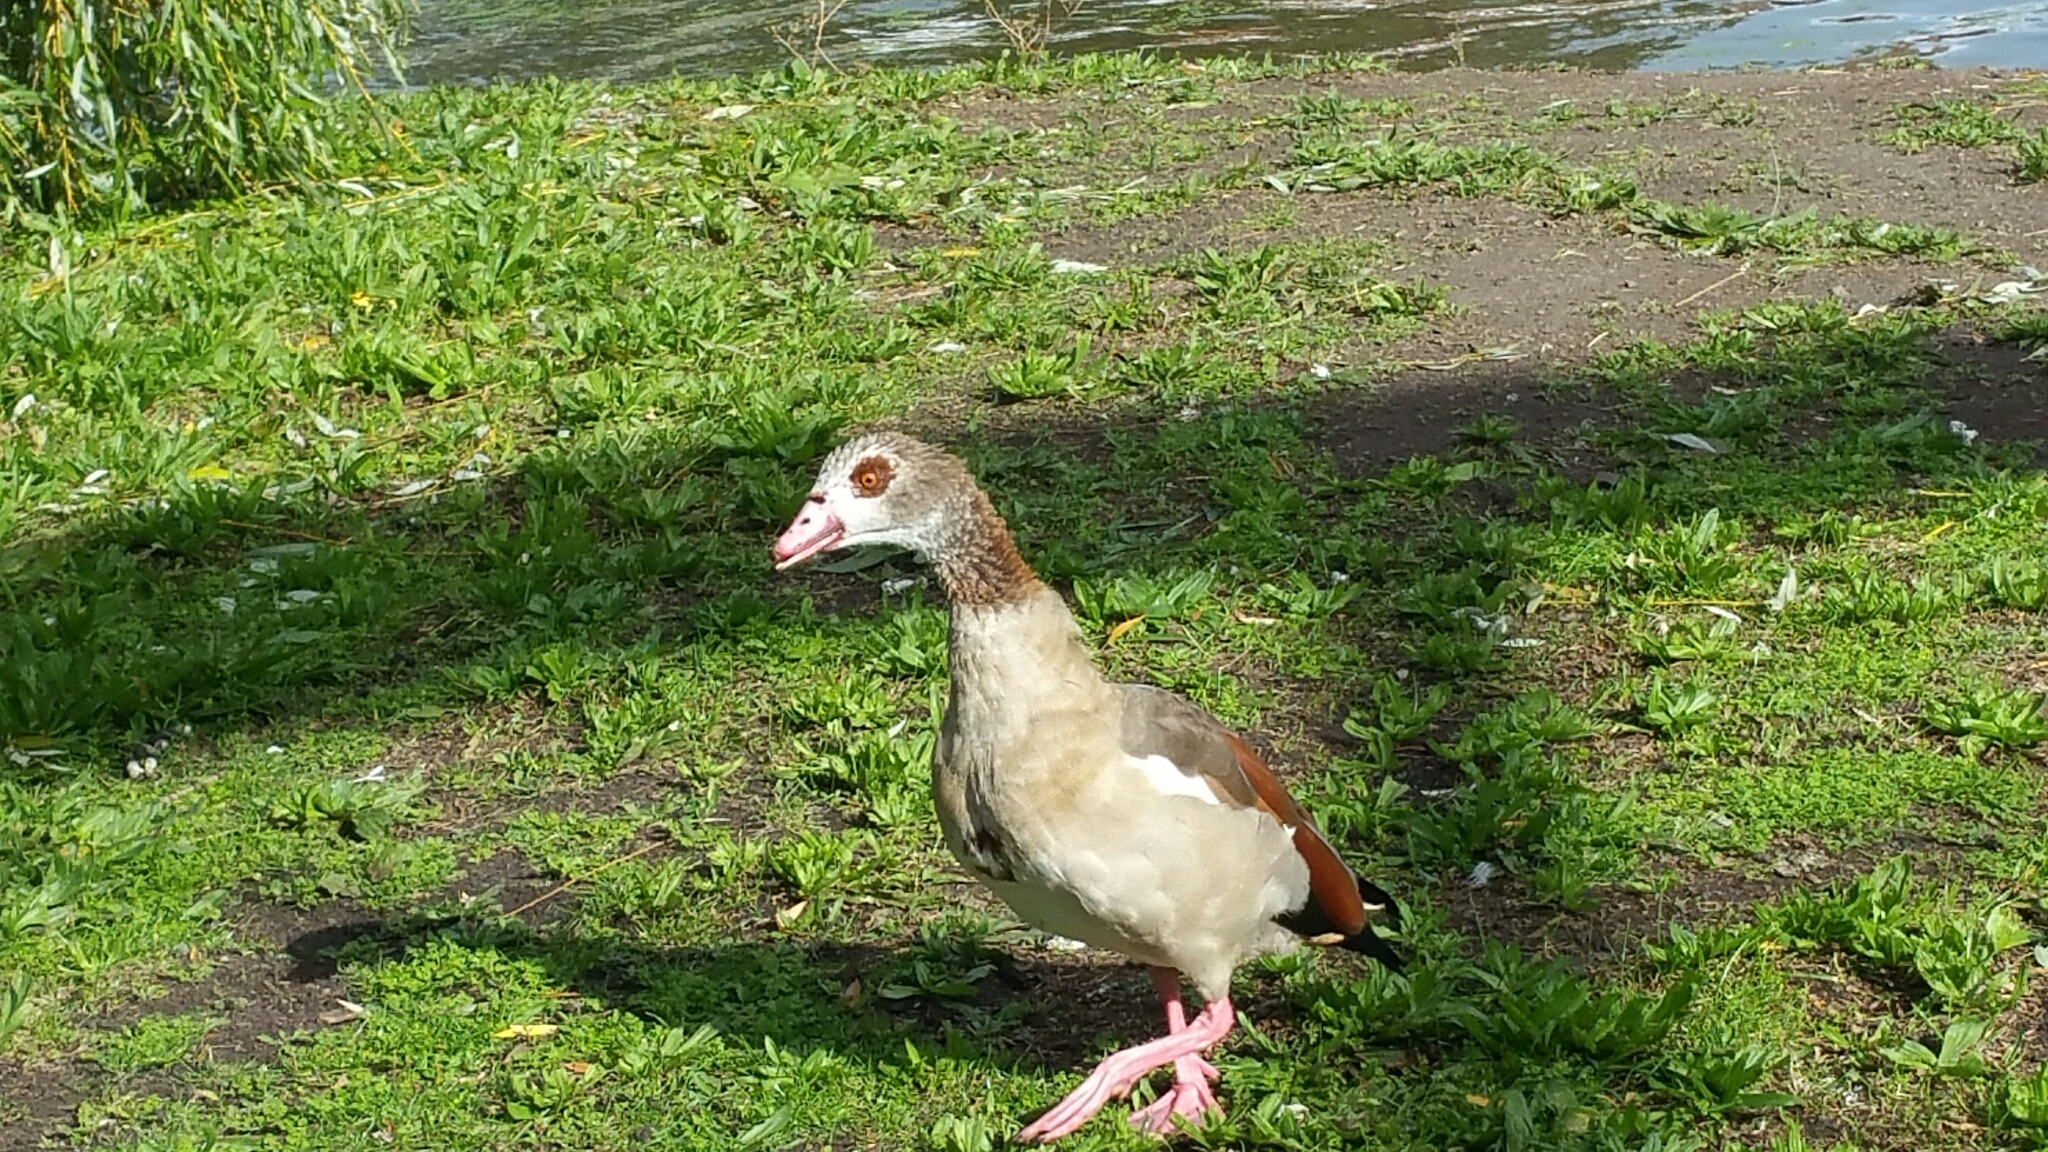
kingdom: Animalia
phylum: Chordata
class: Aves
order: Anseriformes
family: Anatidae
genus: Alopochen
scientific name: Alopochen aegyptiaca
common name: Egyptian goose
